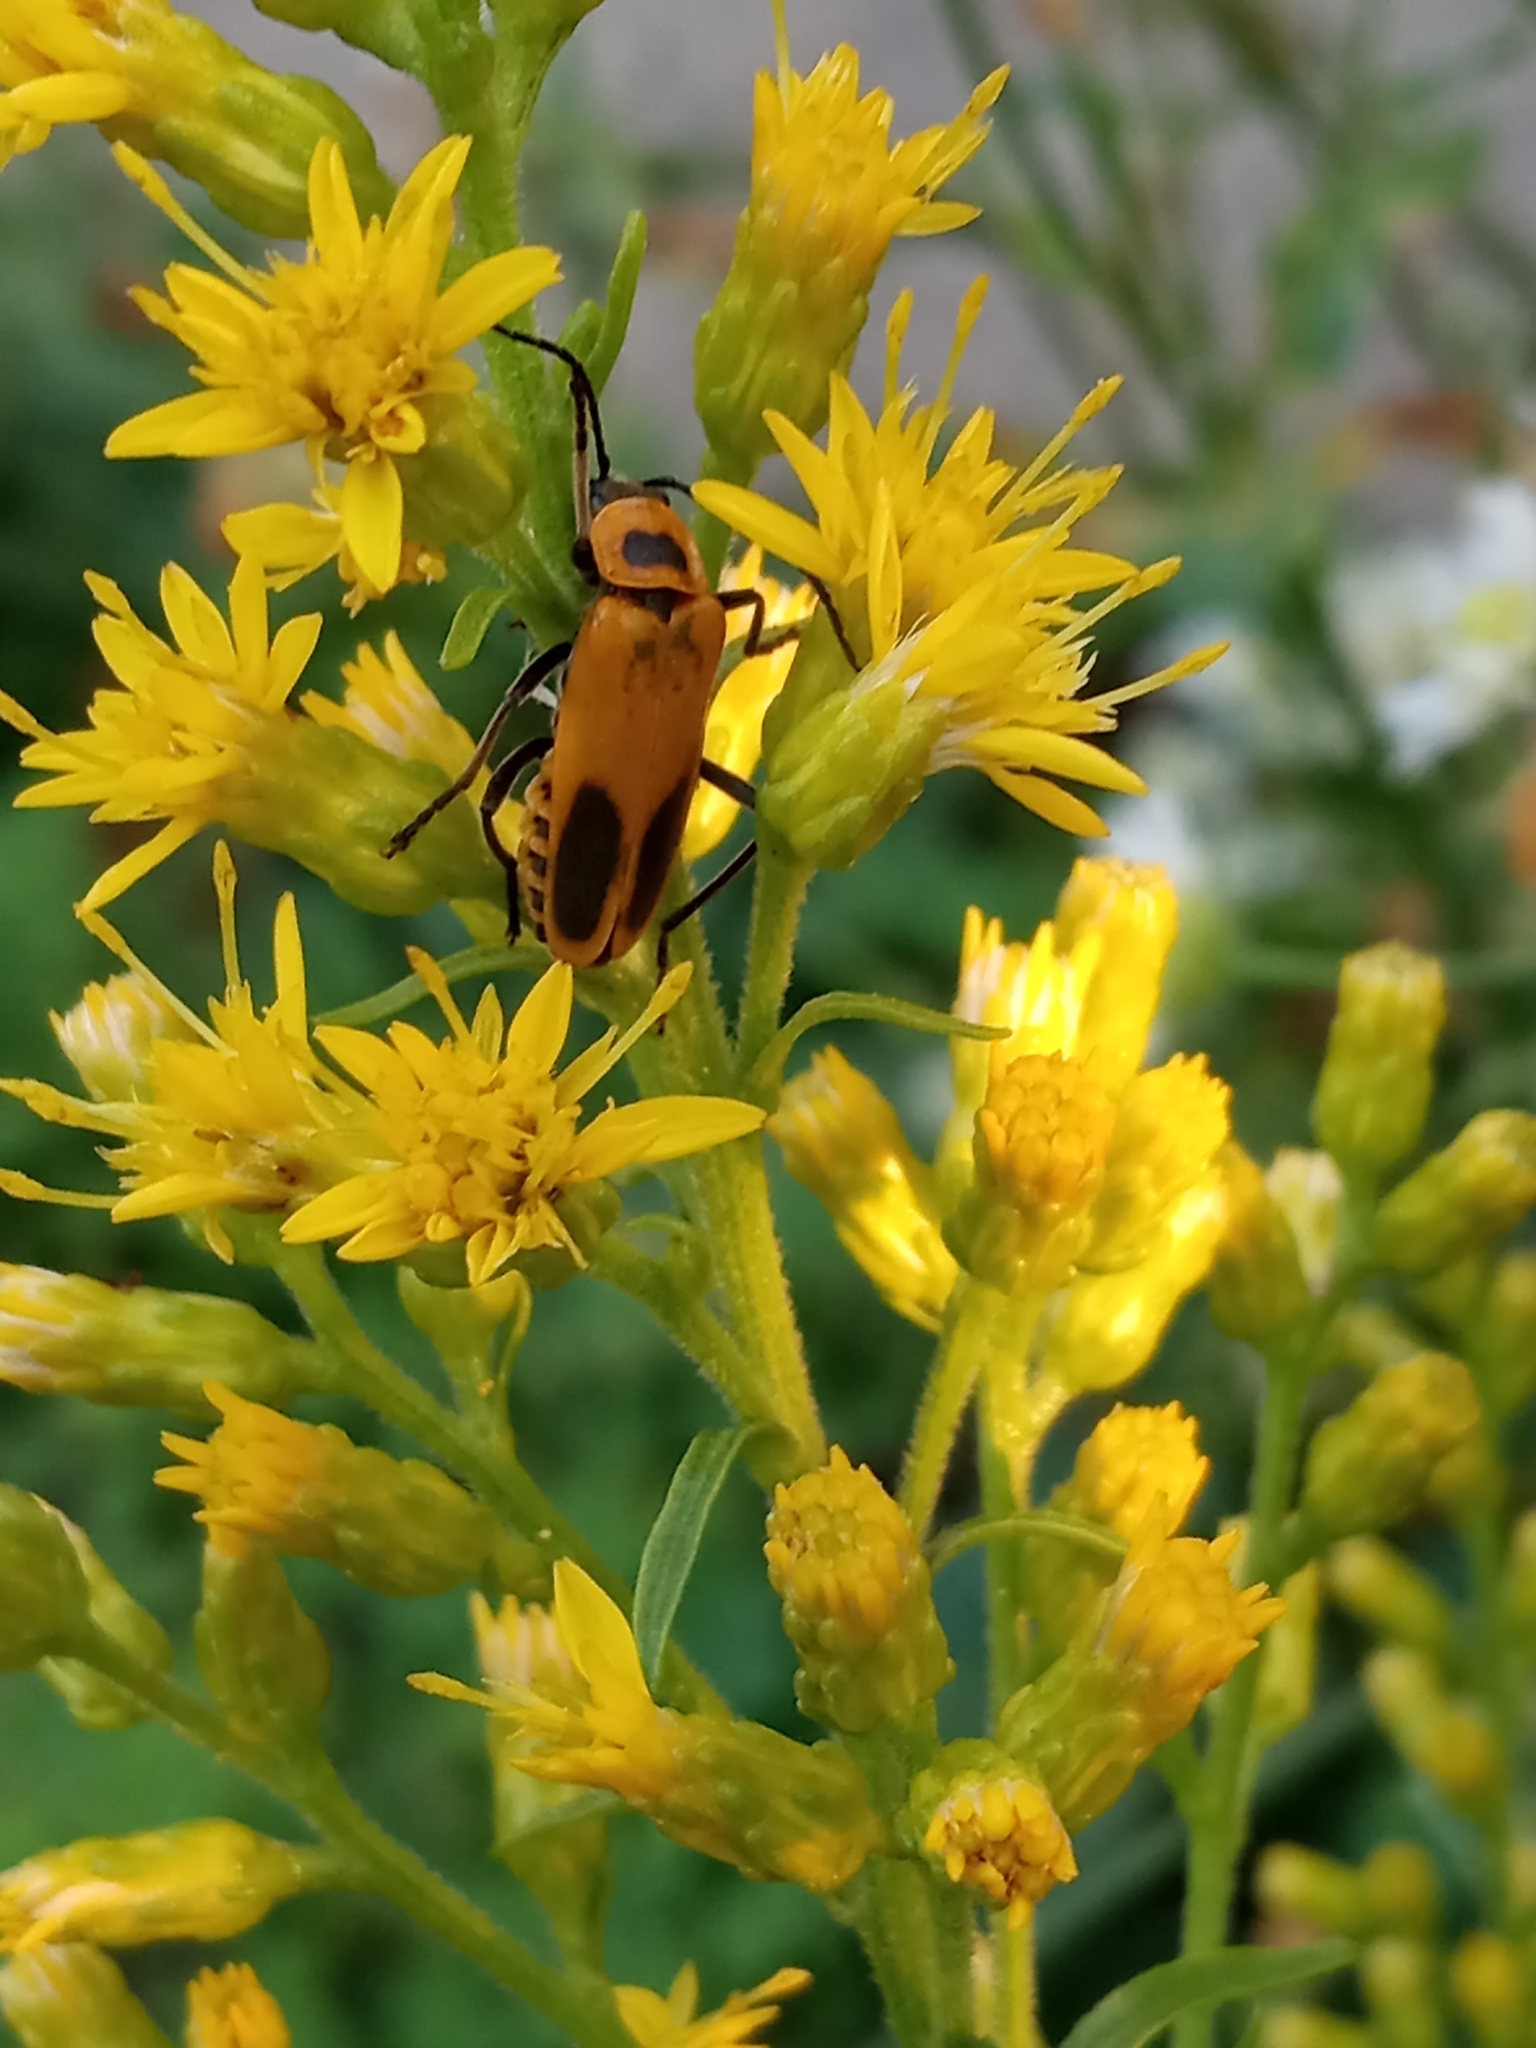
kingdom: Animalia
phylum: Arthropoda
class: Insecta
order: Coleoptera
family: Cantharidae
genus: Chauliognathus
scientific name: Chauliognathus pensylvanicus
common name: Goldenrod soldier beetle
